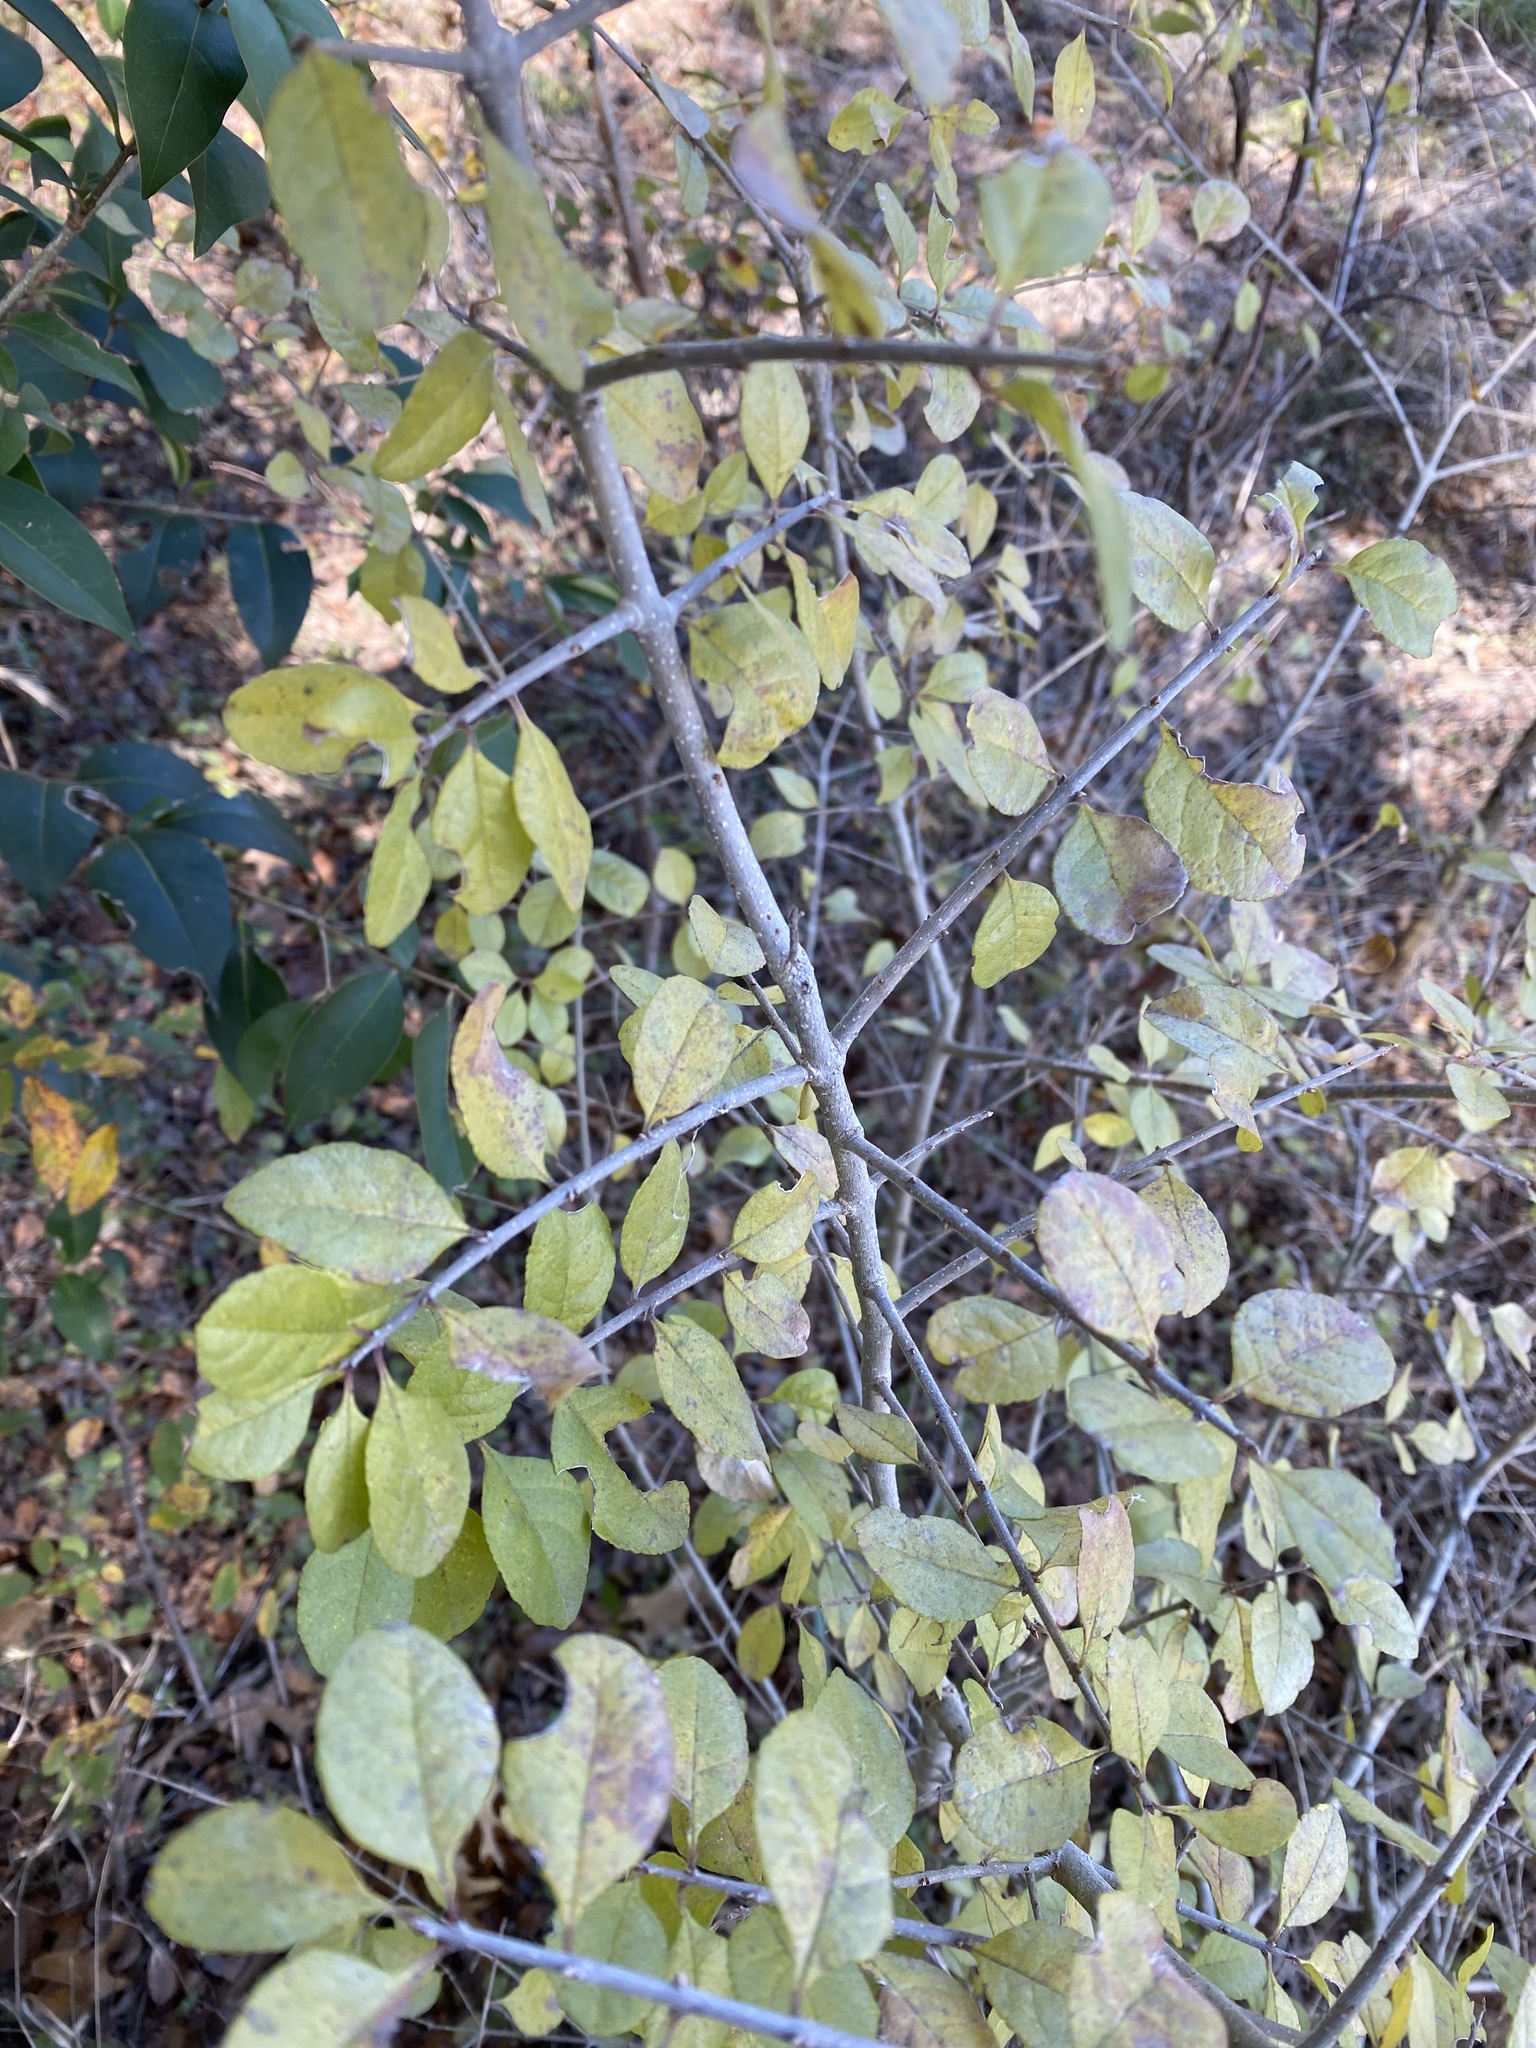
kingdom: Plantae
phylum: Tracheophyta
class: Magnoliopsida
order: Lamiales
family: Oleaceae
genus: Forestiera
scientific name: Forestiera pubescens
